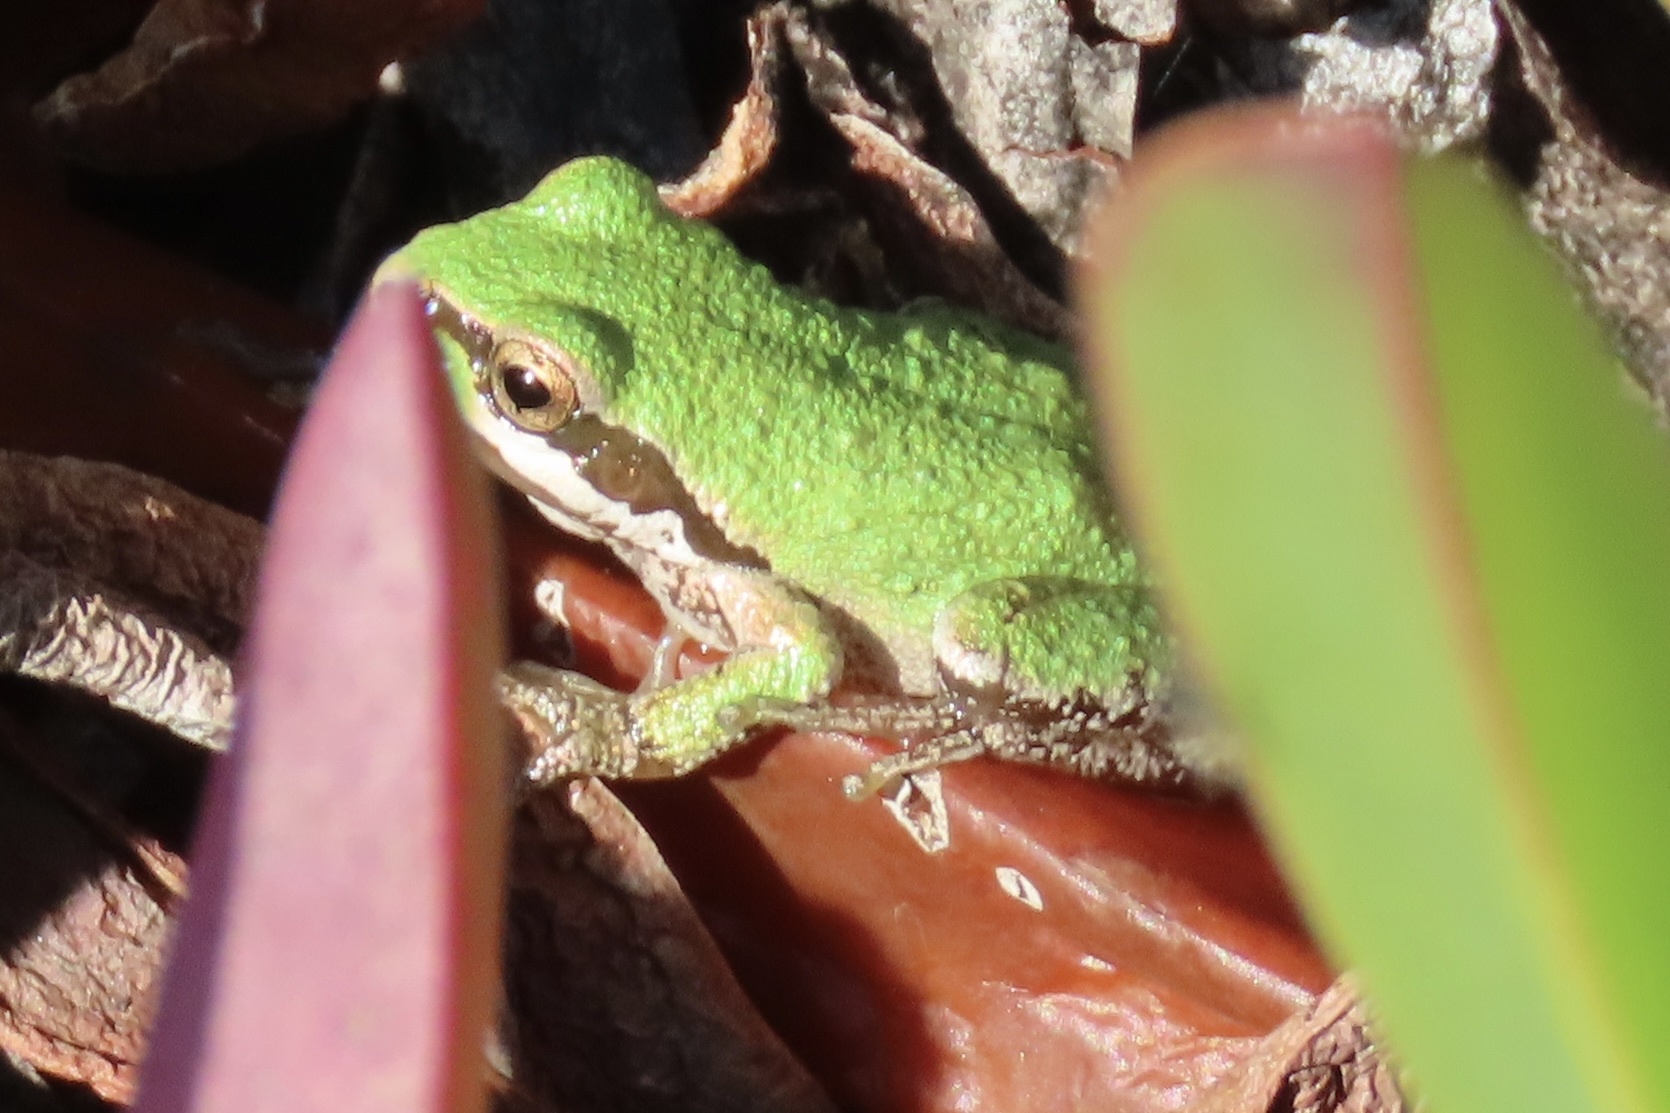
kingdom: Animalia
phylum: Chordata
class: Amphibia
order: Anura
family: Hylidae
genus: Pseudacris
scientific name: Pseudacris regilla
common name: Pacific chorus frog
